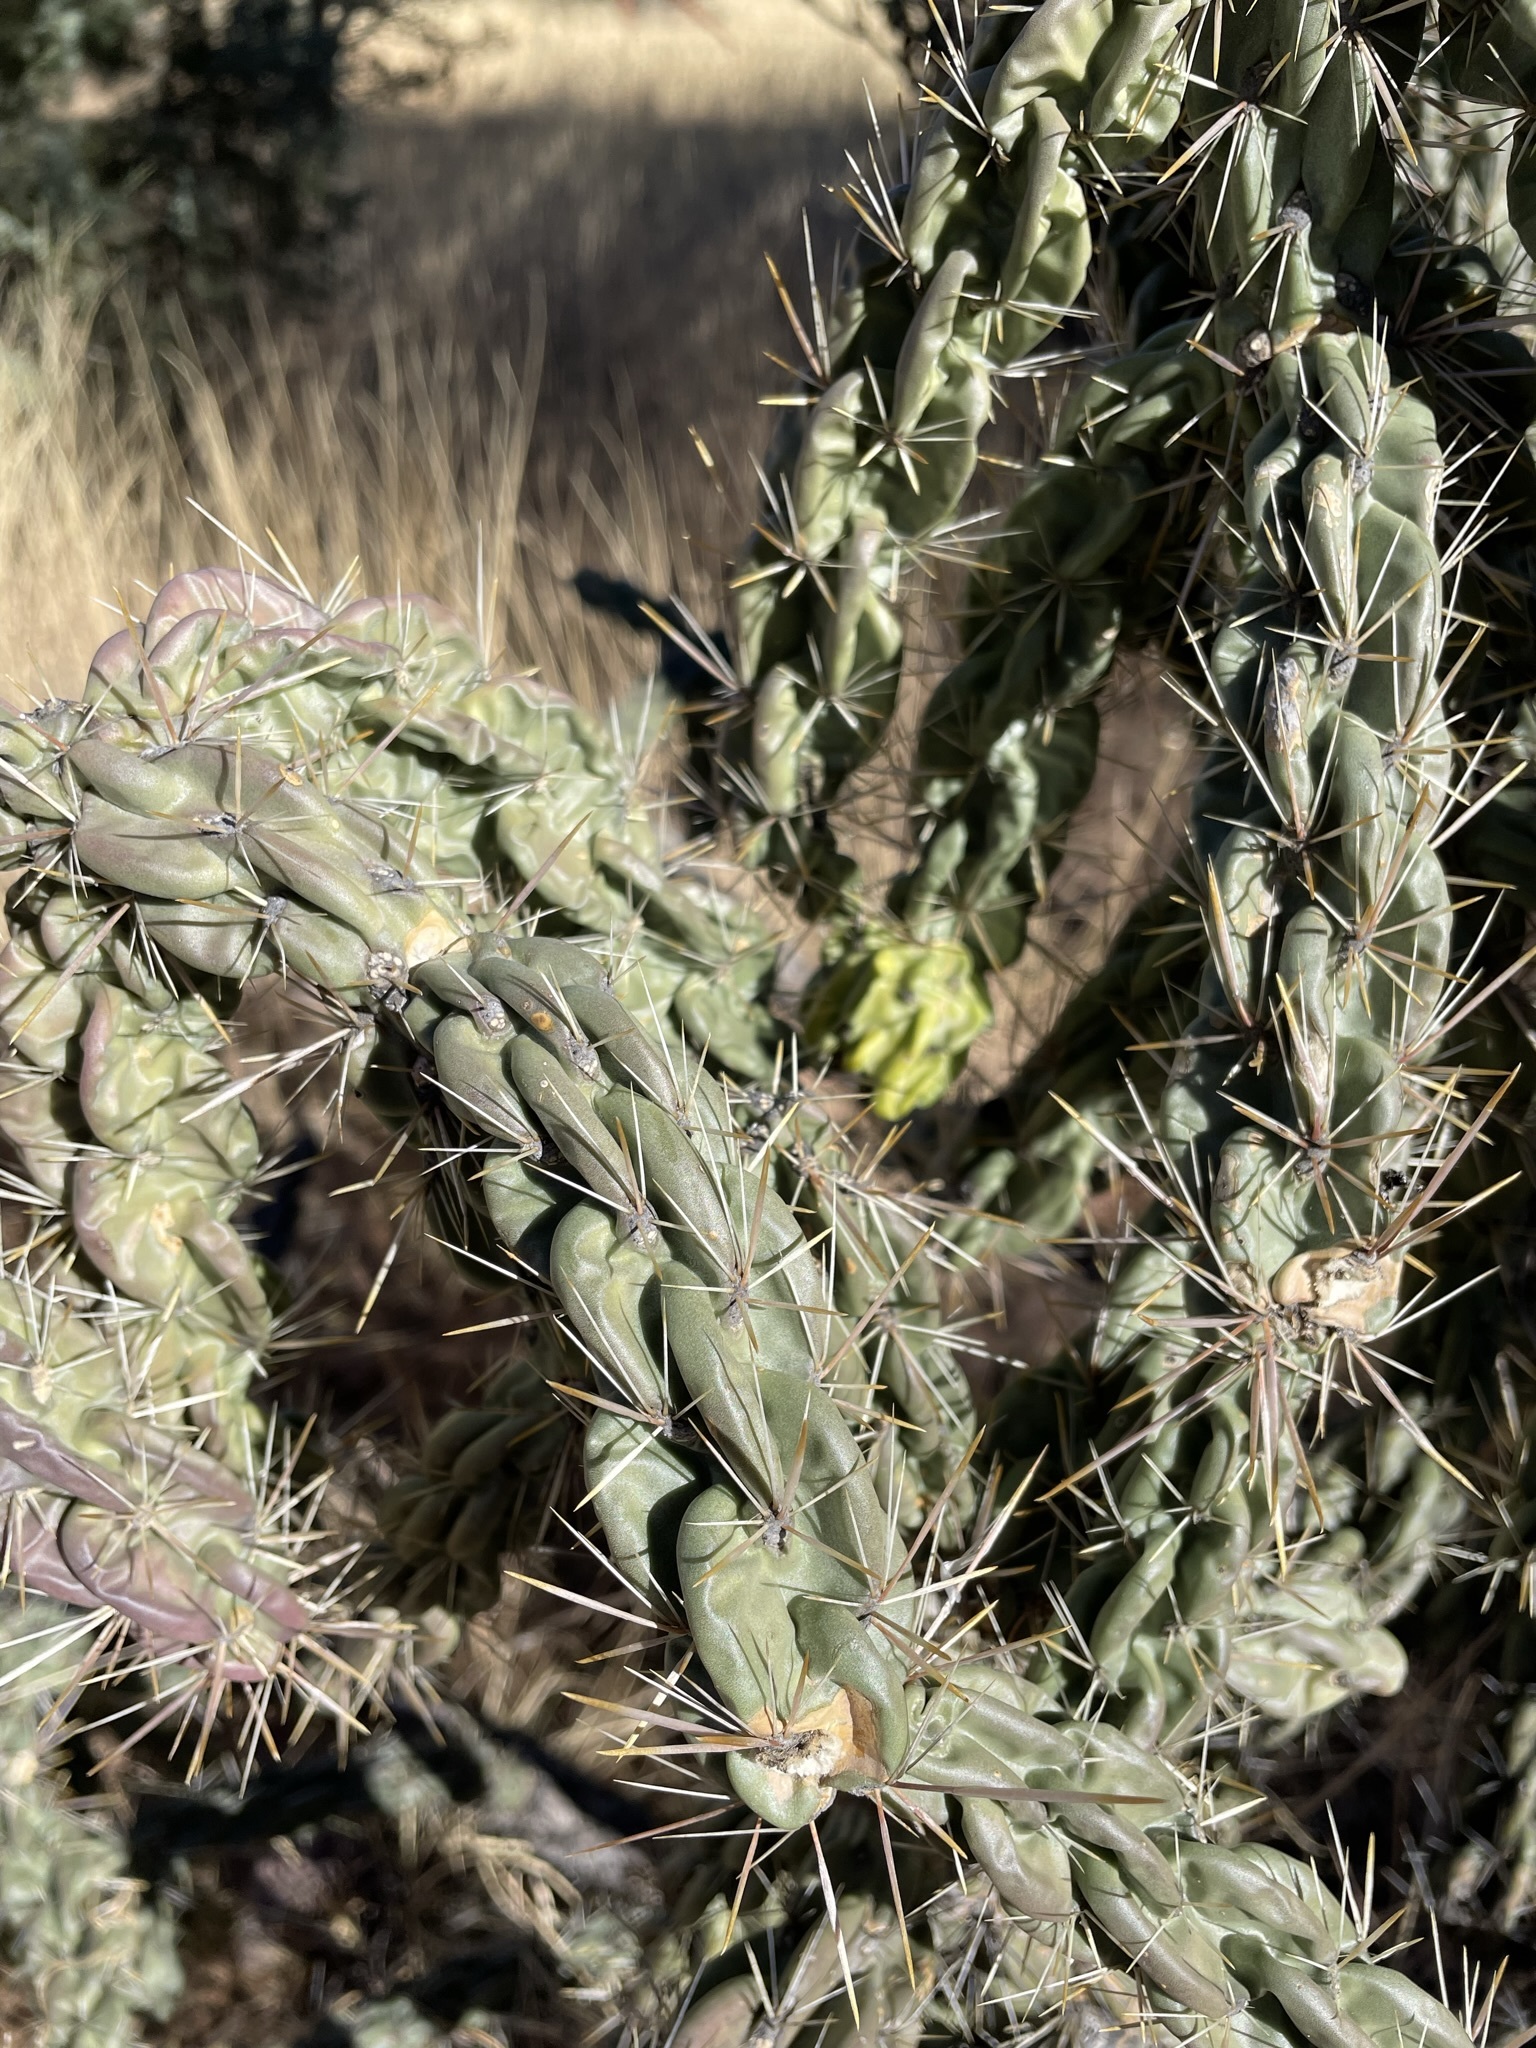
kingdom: Plantae
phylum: Tracheophyta
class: Magnoliopsida
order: Caryophyllales
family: Cactaceae
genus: Cylindropuntia
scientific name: Cylindropuntia imbricata
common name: Candelabrum cactus
